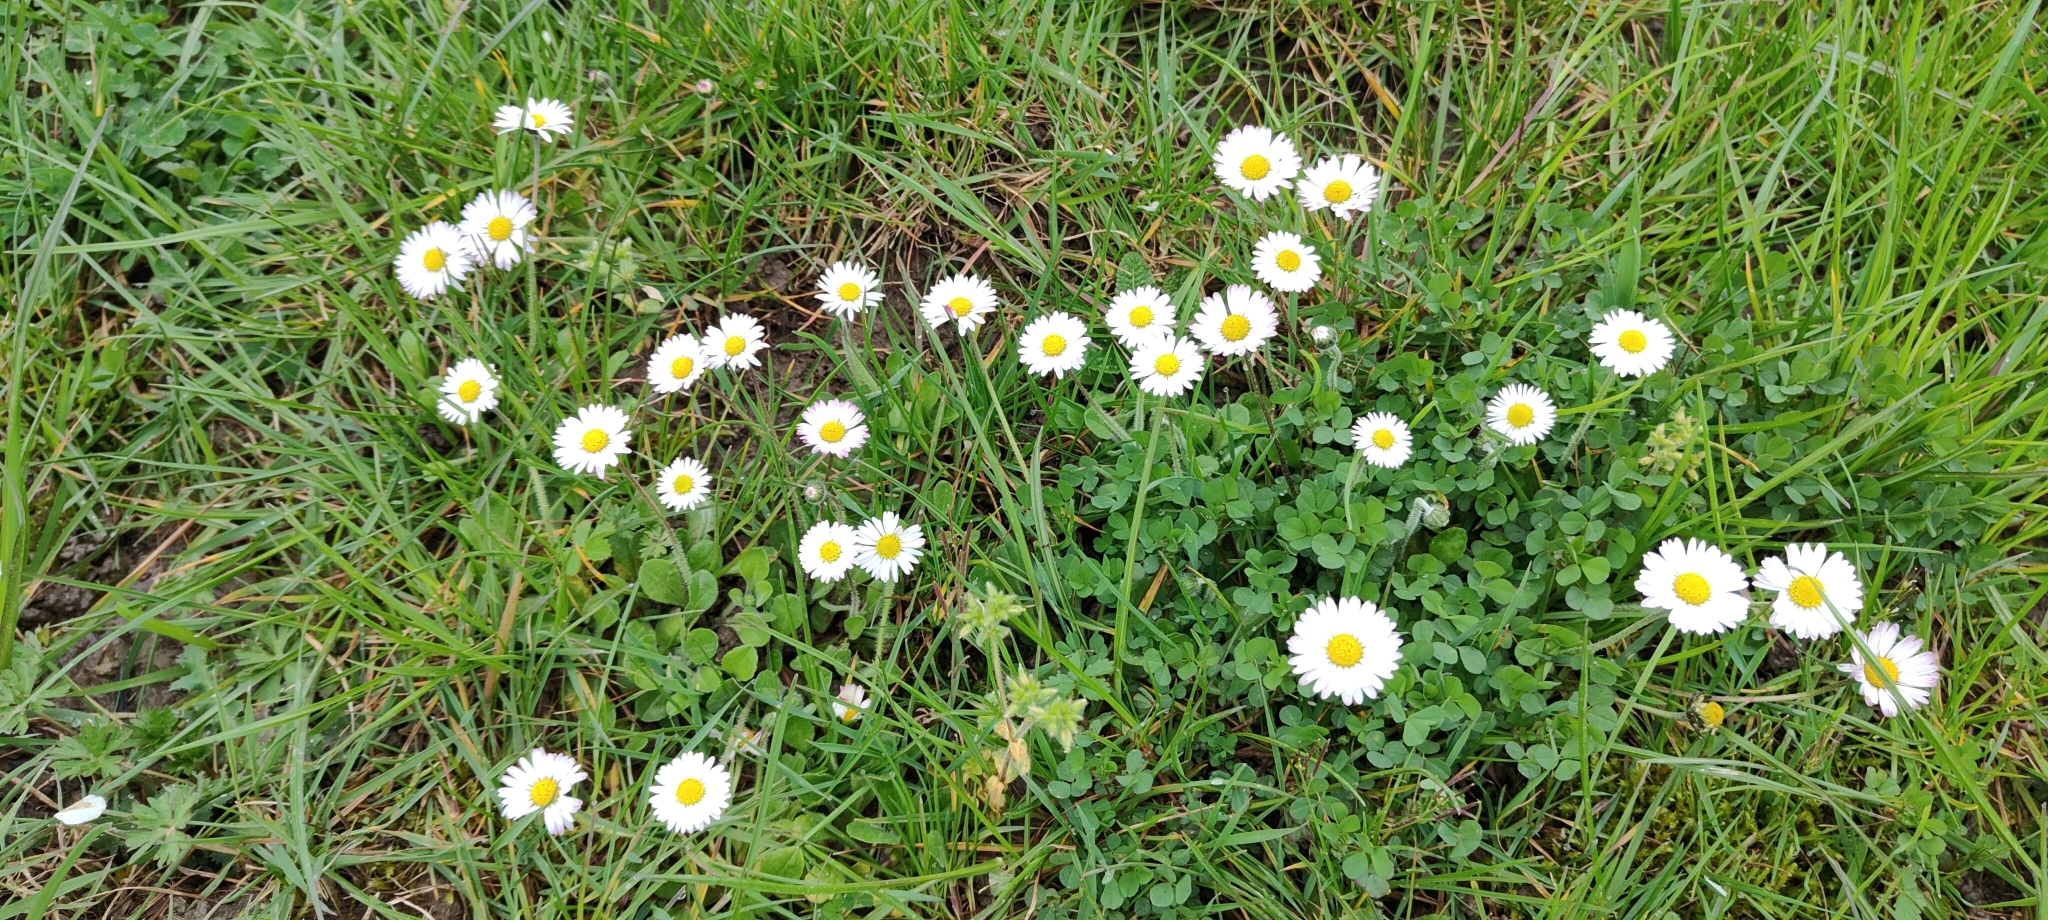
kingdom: Plantae
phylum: Tracheophyta
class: Magnoliopsida
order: Asterales
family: Asteraceae
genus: Bellis
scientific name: Bellis perennis
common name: Lawndaisy
